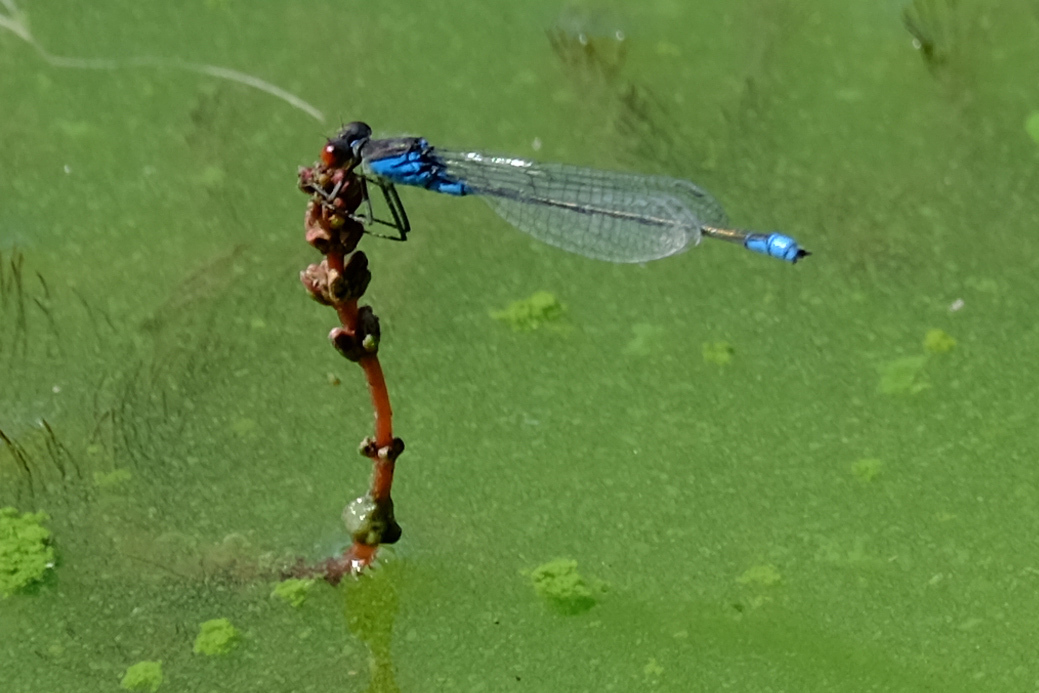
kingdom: Animalia
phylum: Arthropoda
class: Insecta
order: Odonata
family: Coenagrionidae
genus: Erythromma
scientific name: Erythromma viridulum
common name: Small red-eyed damselfly
